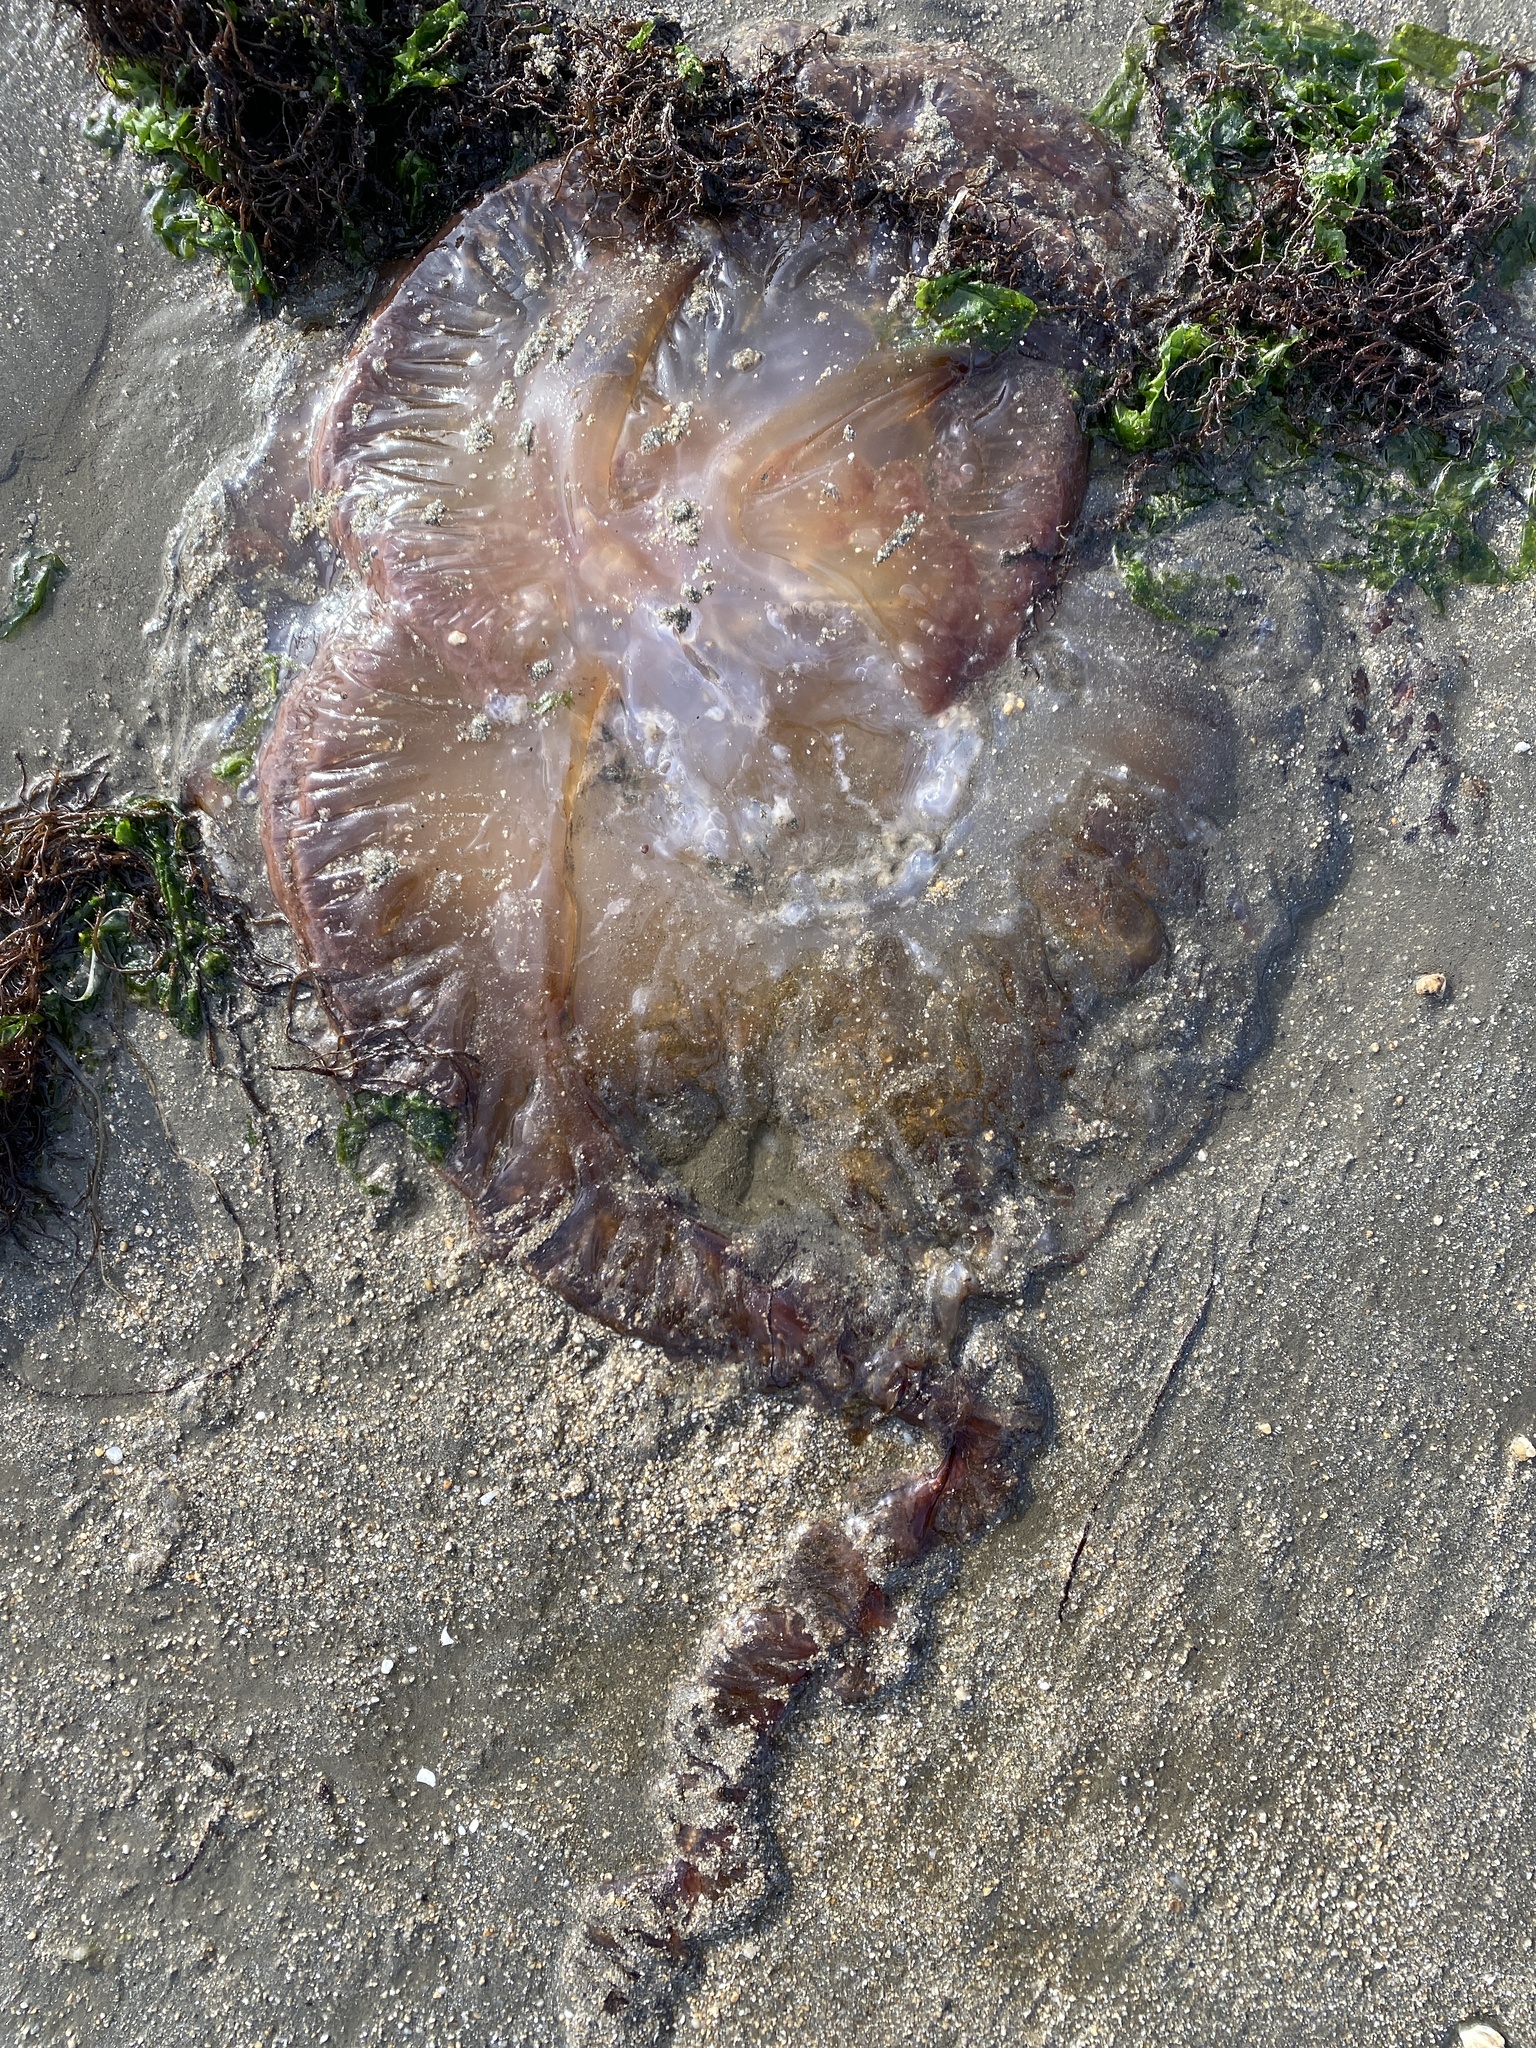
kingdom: Animalia
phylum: Cnidaria
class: Scyphozoa
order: Semaeostomeae
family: Pelagiidae
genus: Chrysaora
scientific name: Chrysaora fuscescens
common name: Sea nettle
